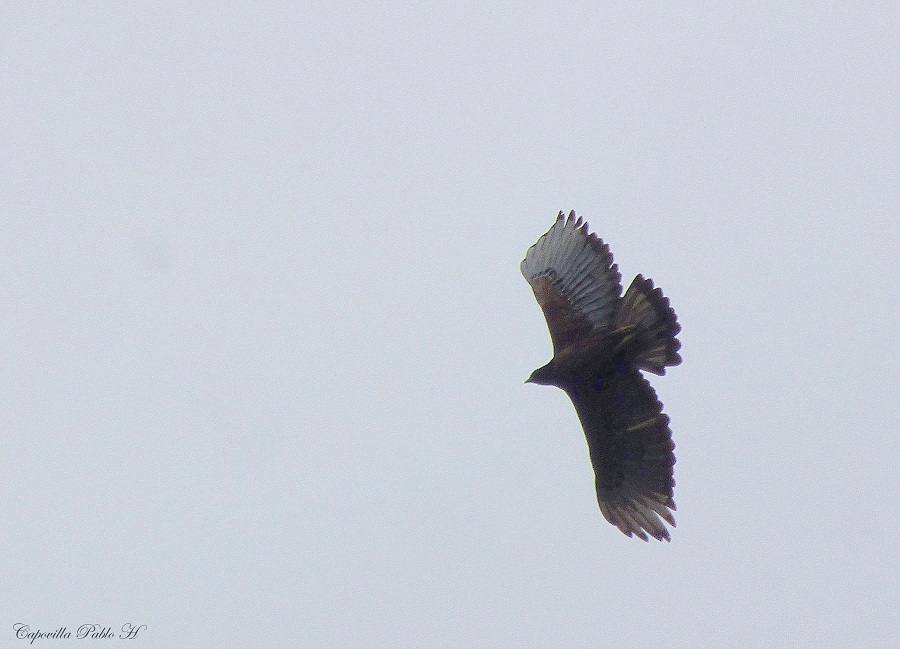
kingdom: Animalia
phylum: Chordata
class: Aves
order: Accipitriformes
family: Accipitridae
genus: Spizaetus
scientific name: Spizaetus isidori
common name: Black-and-chestnut eagle
